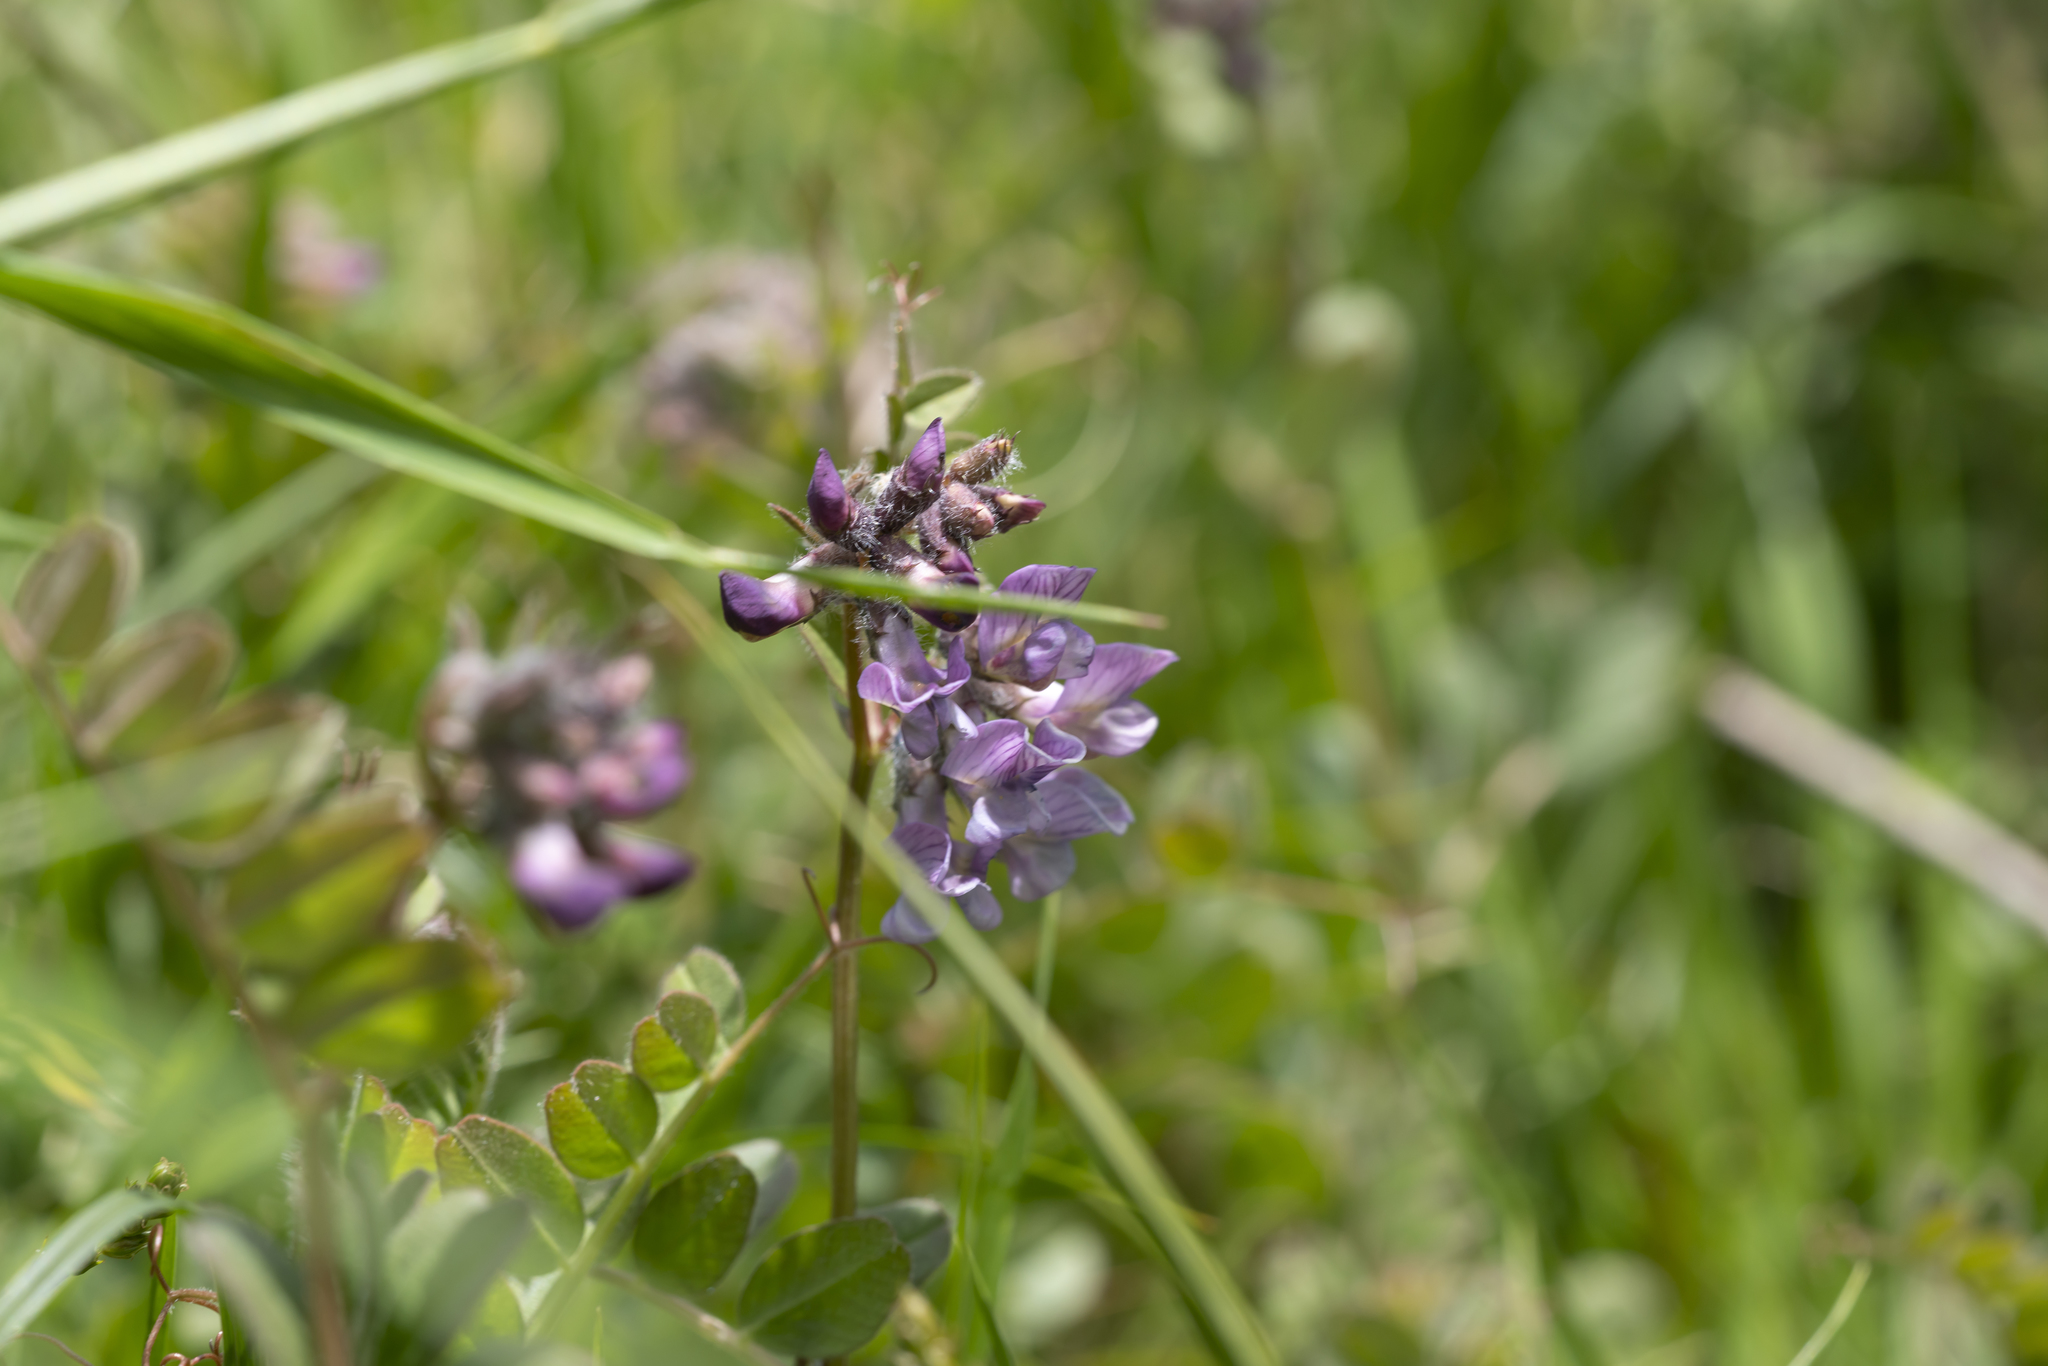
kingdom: Plantae
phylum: Tracheophyta
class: Magnoliopsida
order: Fabales
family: Fabaceae
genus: Vicia
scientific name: Vicia sepium
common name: Bush vetch
